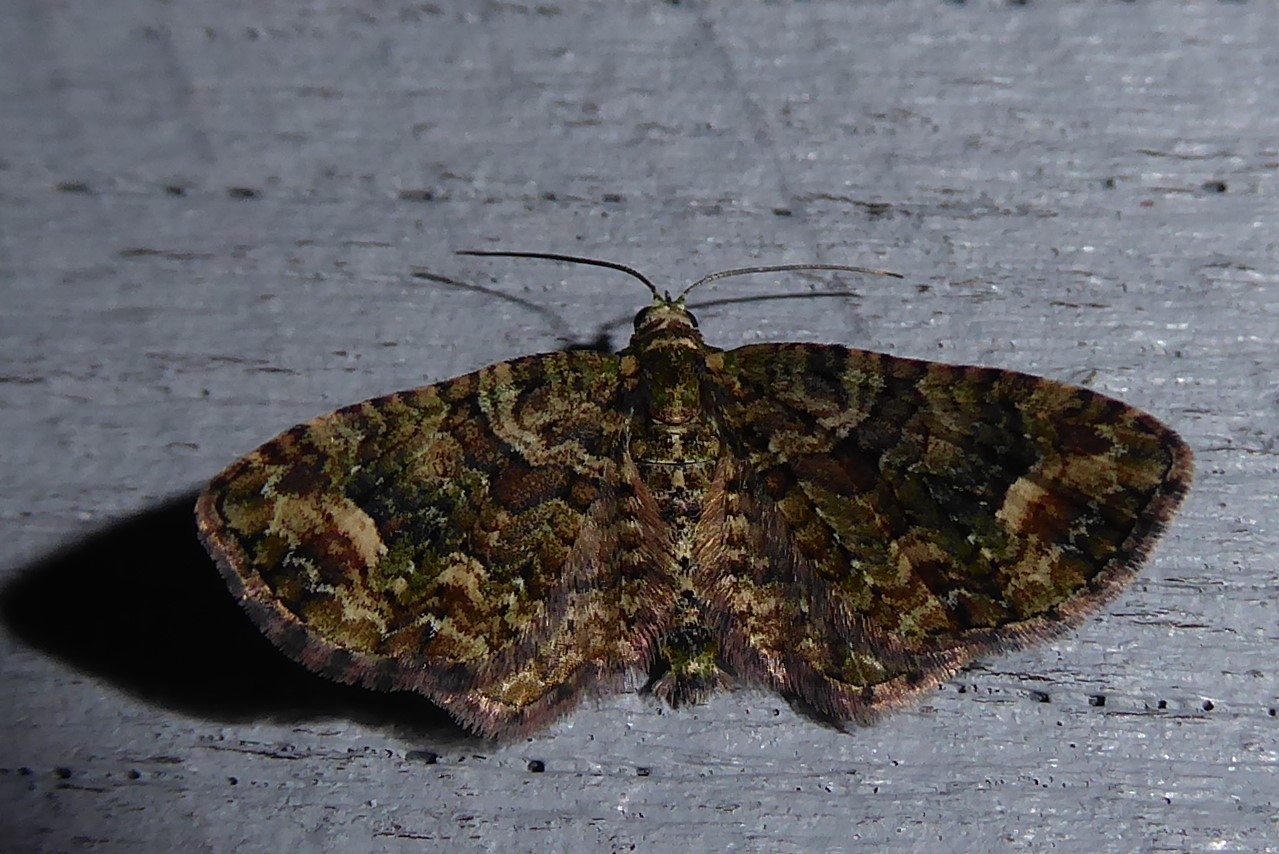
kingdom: Animalia
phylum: Arthropoda
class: Insecta
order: Lepidoptera
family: Geometridae
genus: Pasiphilodes
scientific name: Pasiphilodes testulata
